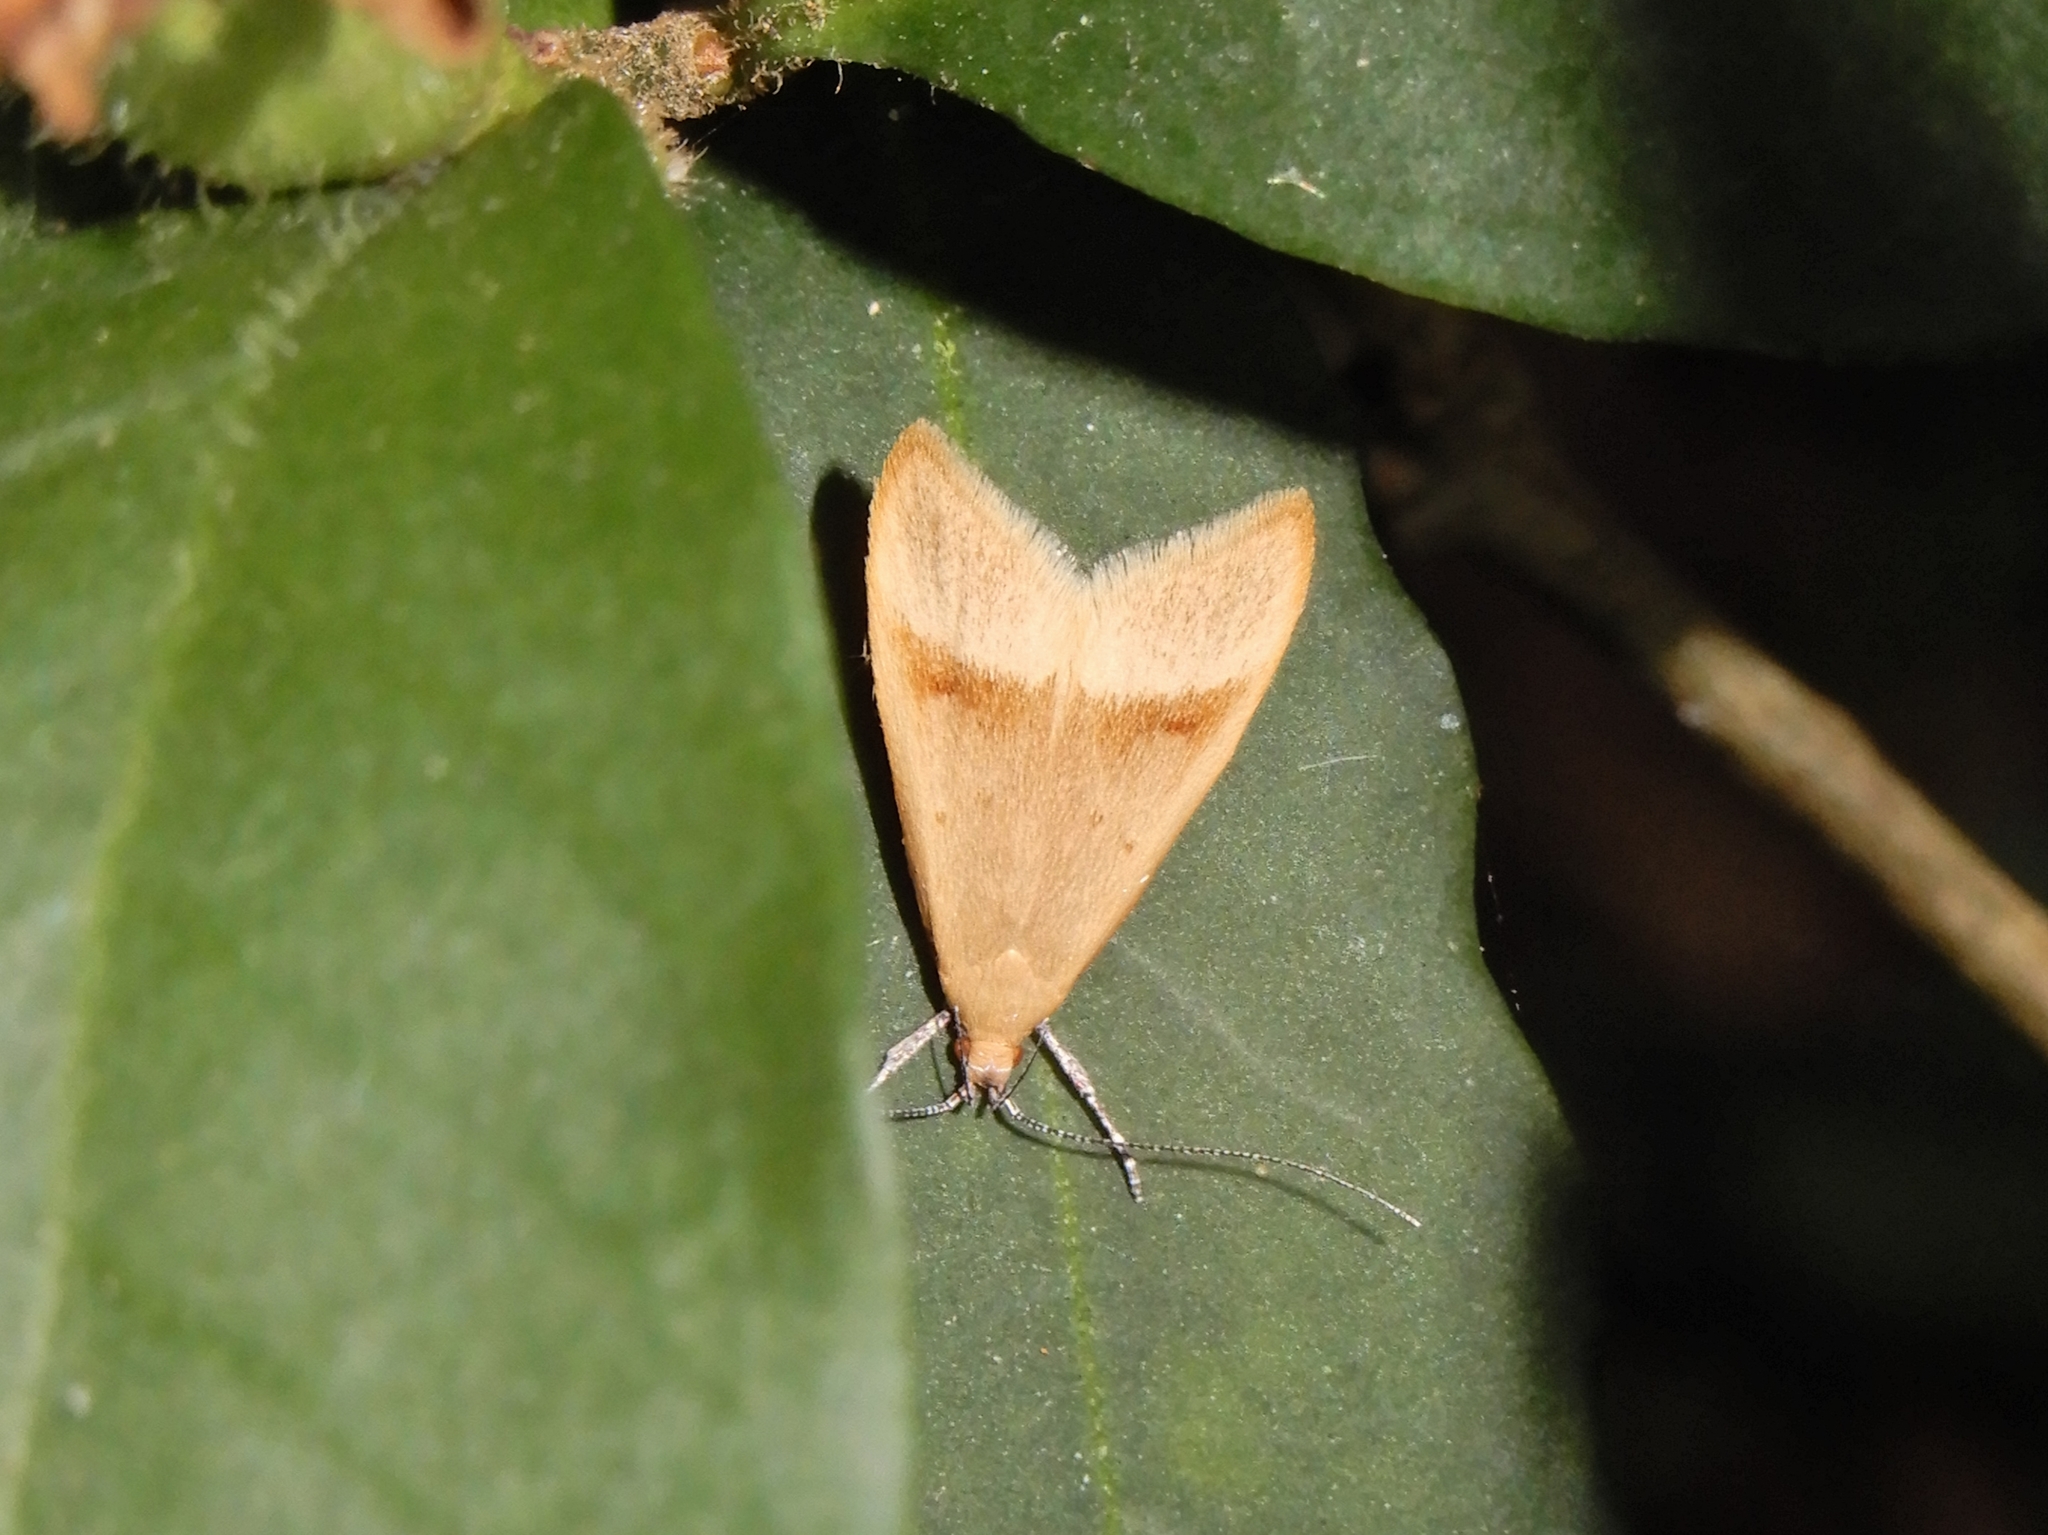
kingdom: Animalia
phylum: Arthropoda
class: Insecta
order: Lepidoptera
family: Oecophoridae
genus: Gymnobathra
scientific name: Gymnobathra hyetodes
